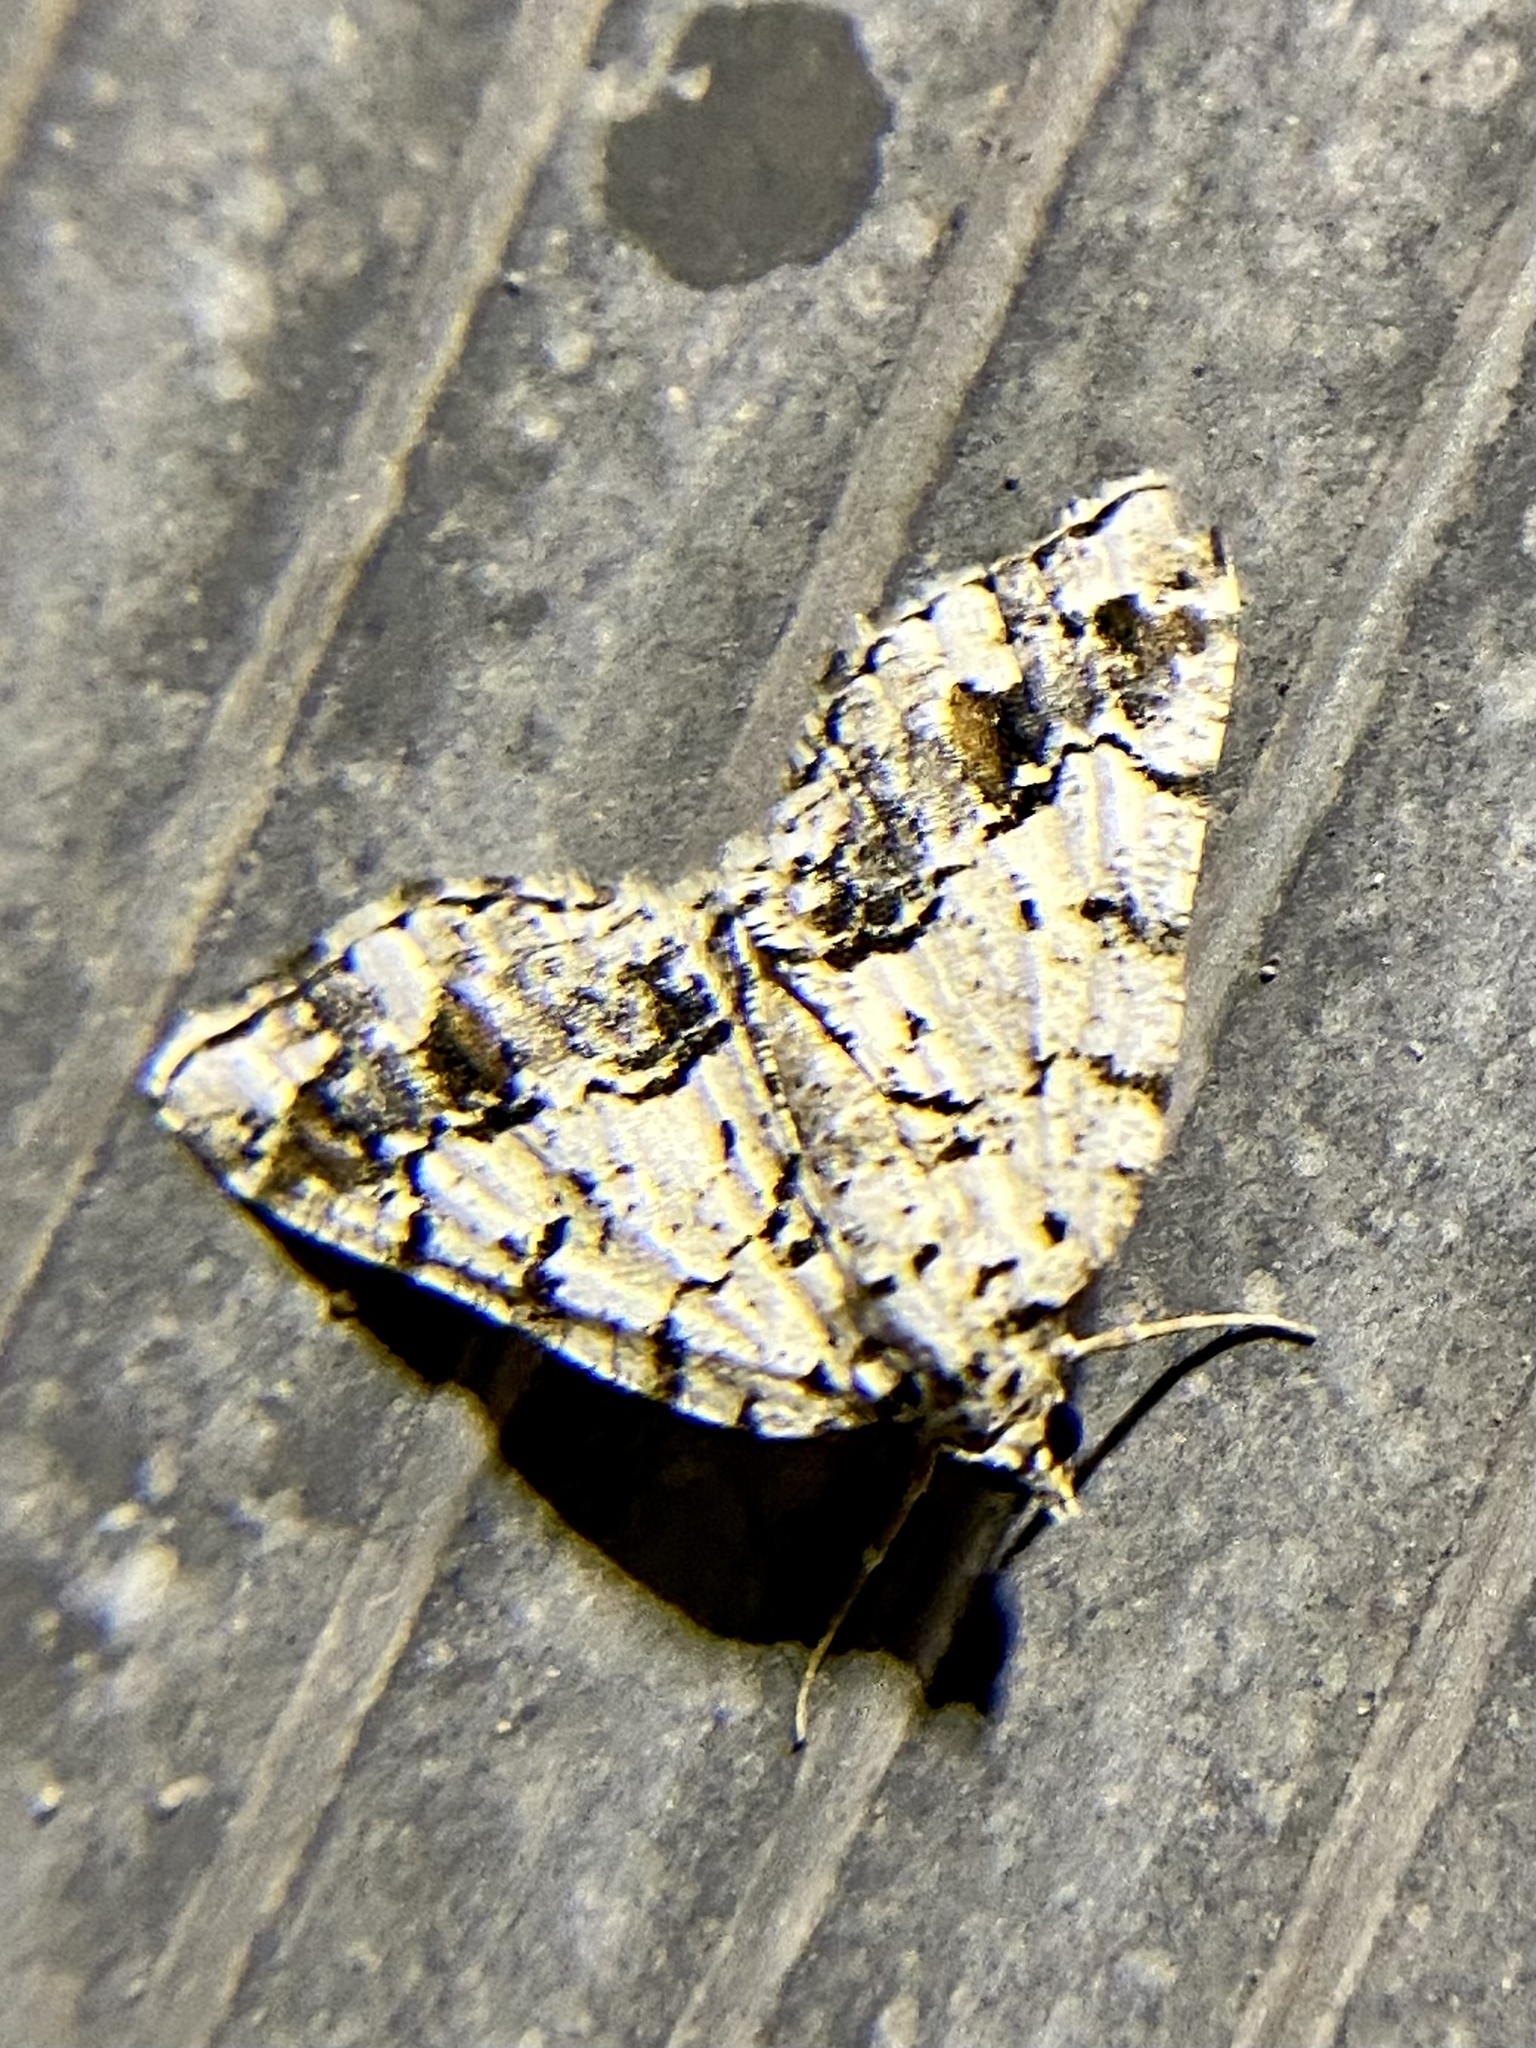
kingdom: Animalia
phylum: Arthropoda
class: Insecta
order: Lepidoptera
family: Geometridae
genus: Macaria
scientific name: Macaria graphidaria
